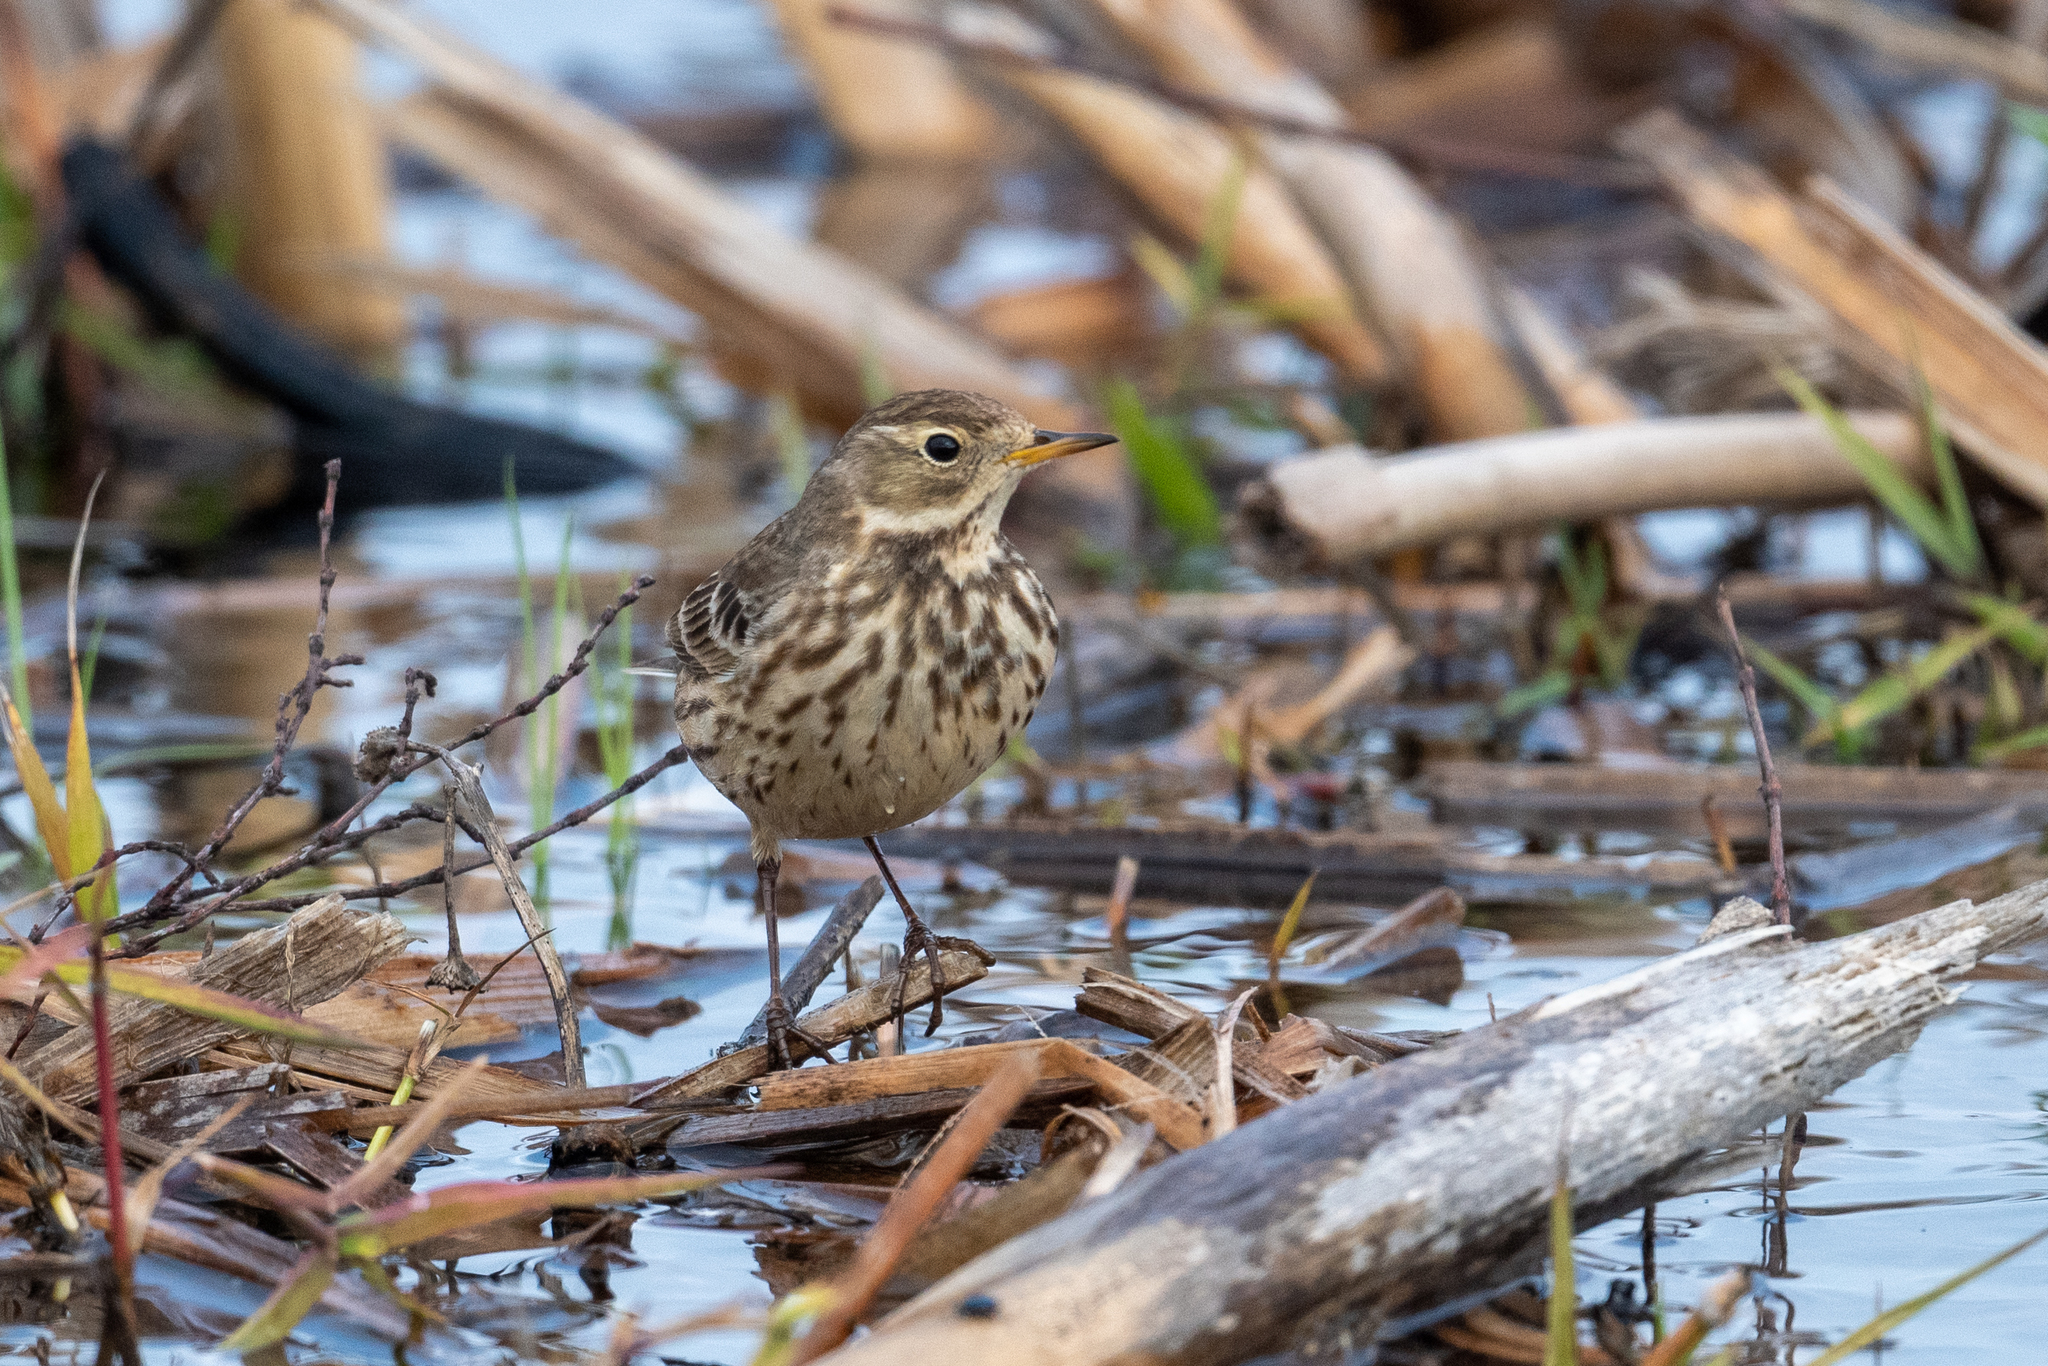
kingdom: Animalia
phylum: Chordata
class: Aves
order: Passeriformes
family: Motacillidae
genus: Anthus
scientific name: Anthus rubescens
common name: Buff-bellied pipit
